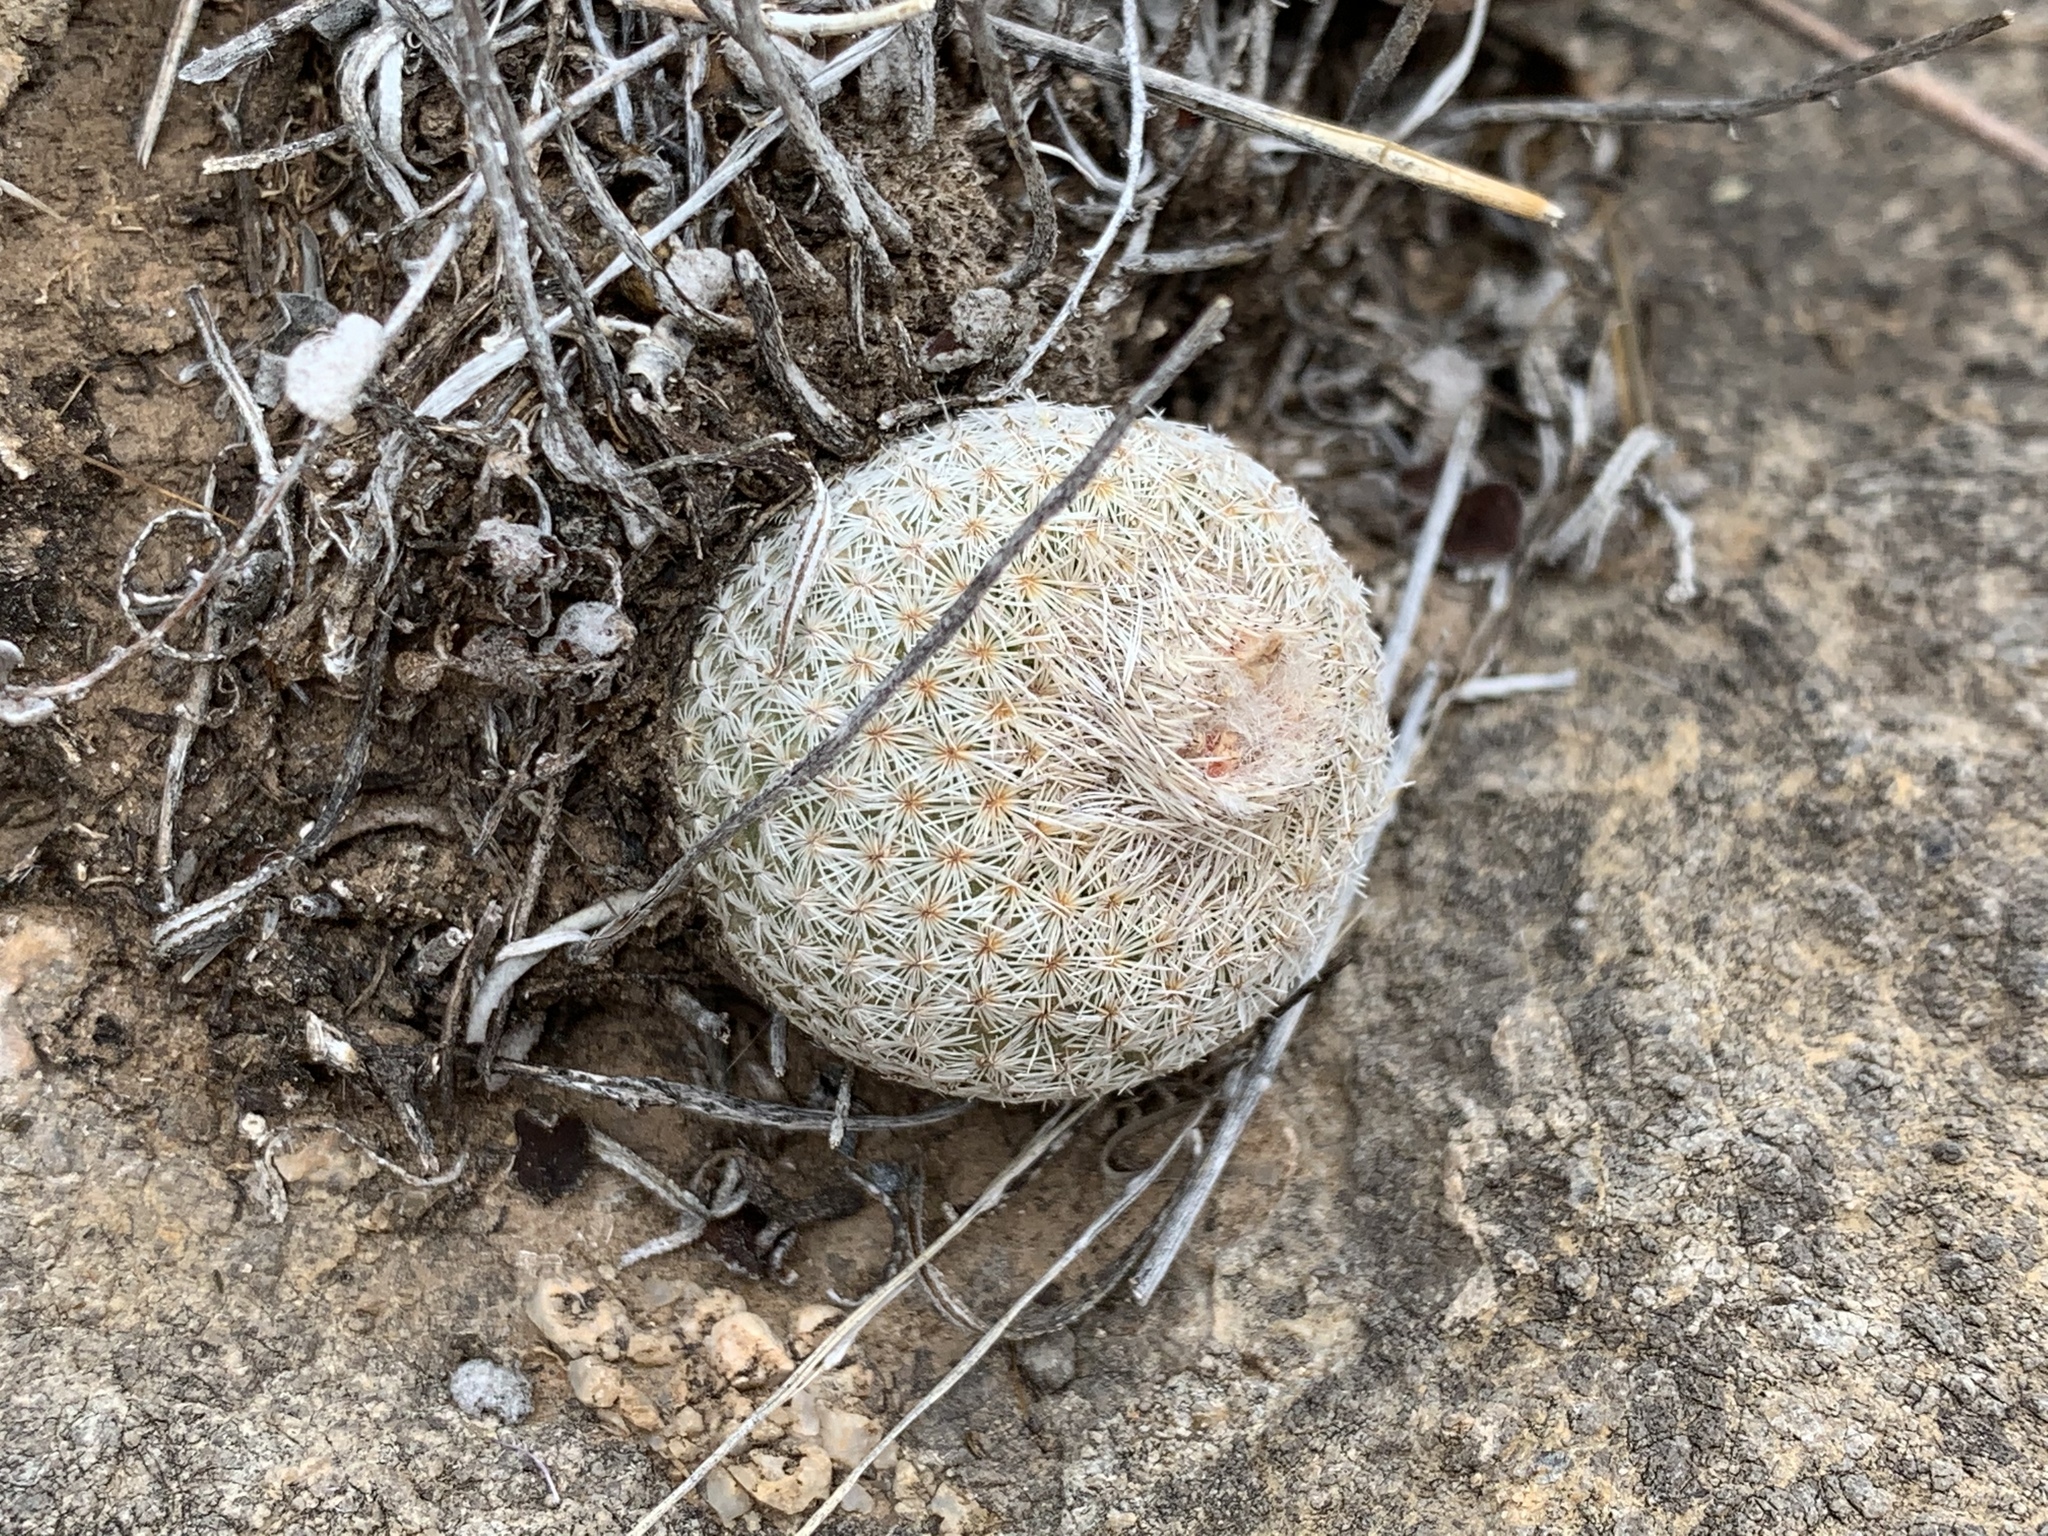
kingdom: Plantae
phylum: Tracheophyta
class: Magnoliopsida
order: Caryophyllales
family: Cactaceae
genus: Epithelantha
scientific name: Epithelantha micromeris
